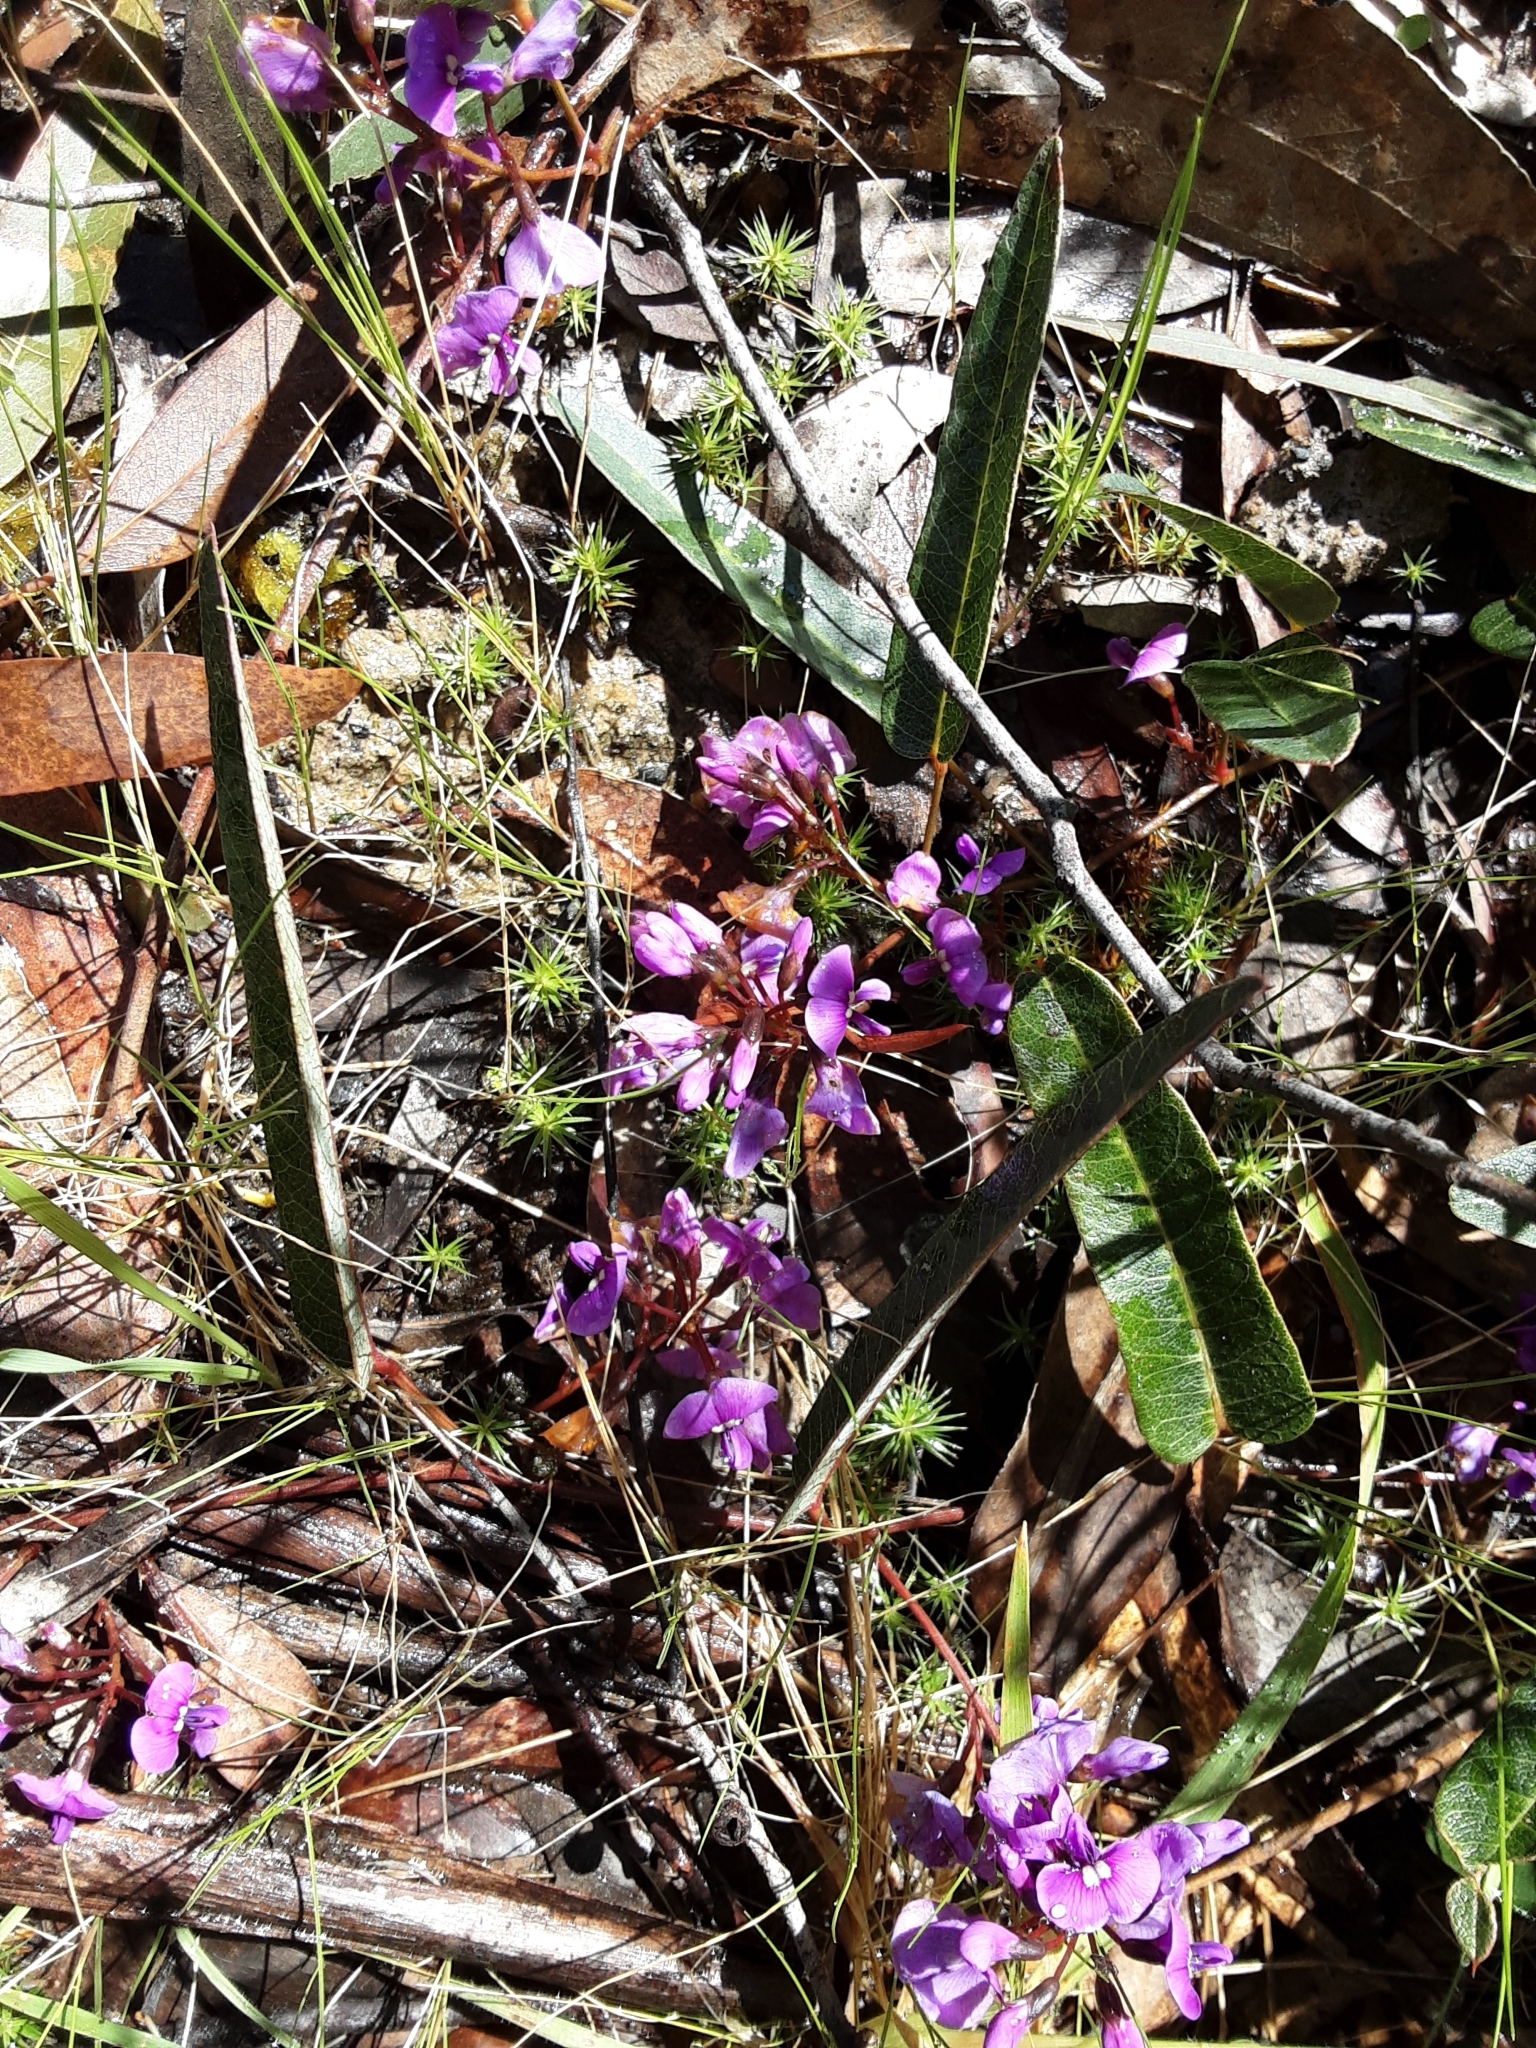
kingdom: Plantae
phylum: Tracheophyta
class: Magnoliopsida
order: Fabales
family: Fabaceae
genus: Hardenbergia
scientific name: Hardenbergia violacea
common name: Coral-pea
